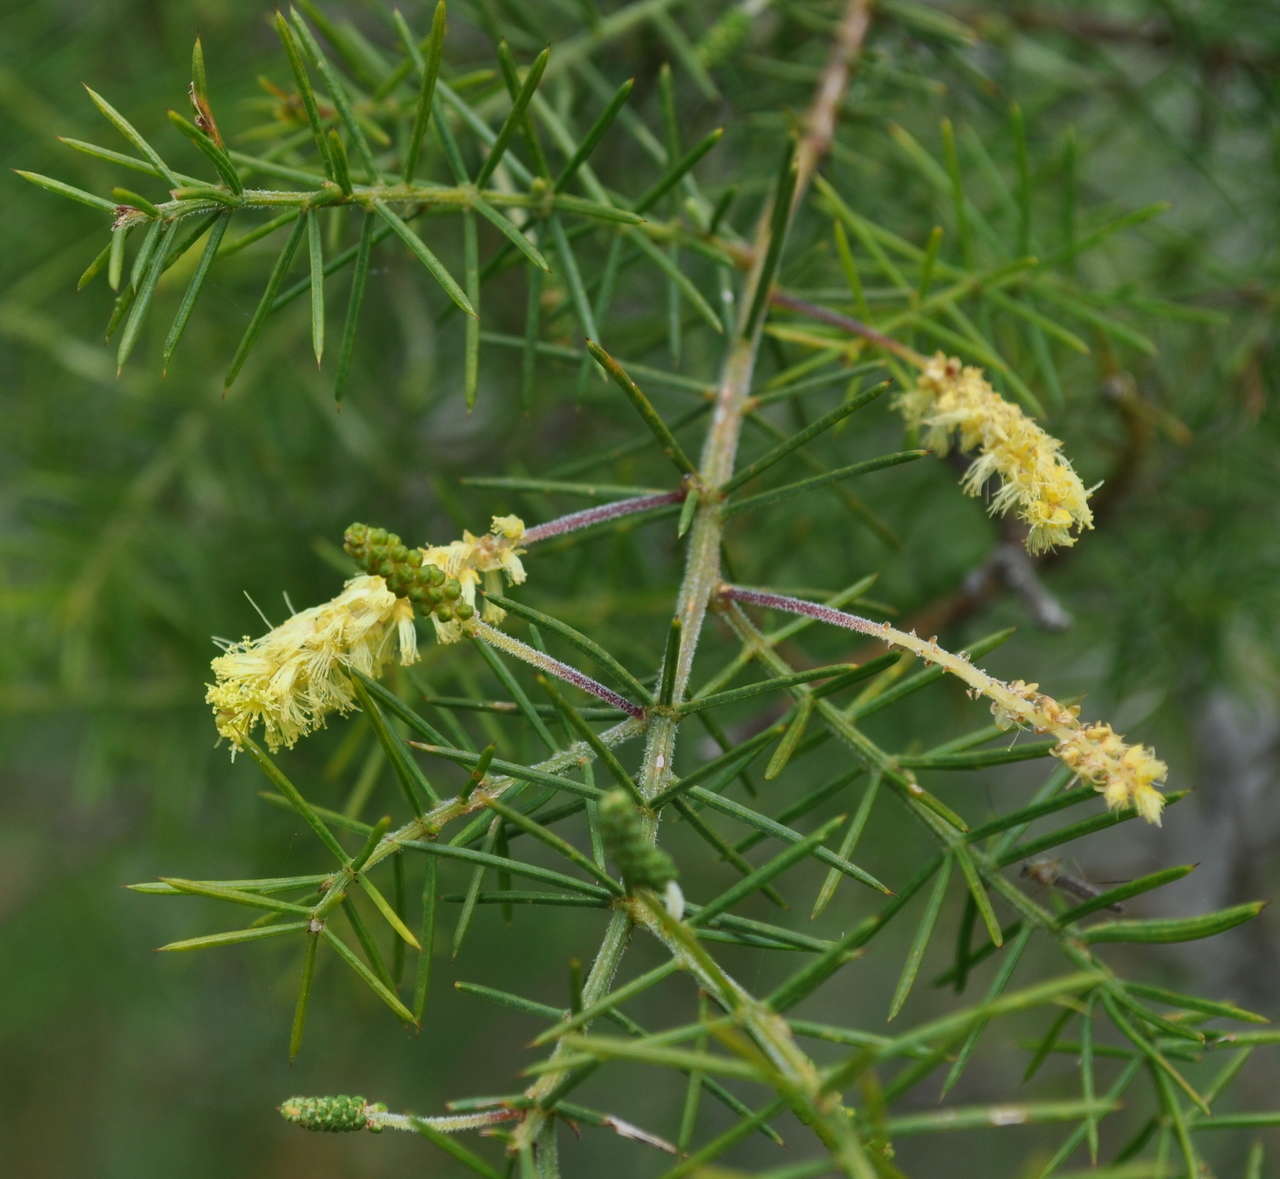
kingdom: Plantae
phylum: Tracheophyta
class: Magnoliopsida
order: Fabales
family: Fabaceae
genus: Acacia
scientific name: Acacia verticillata
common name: Prickly moses
